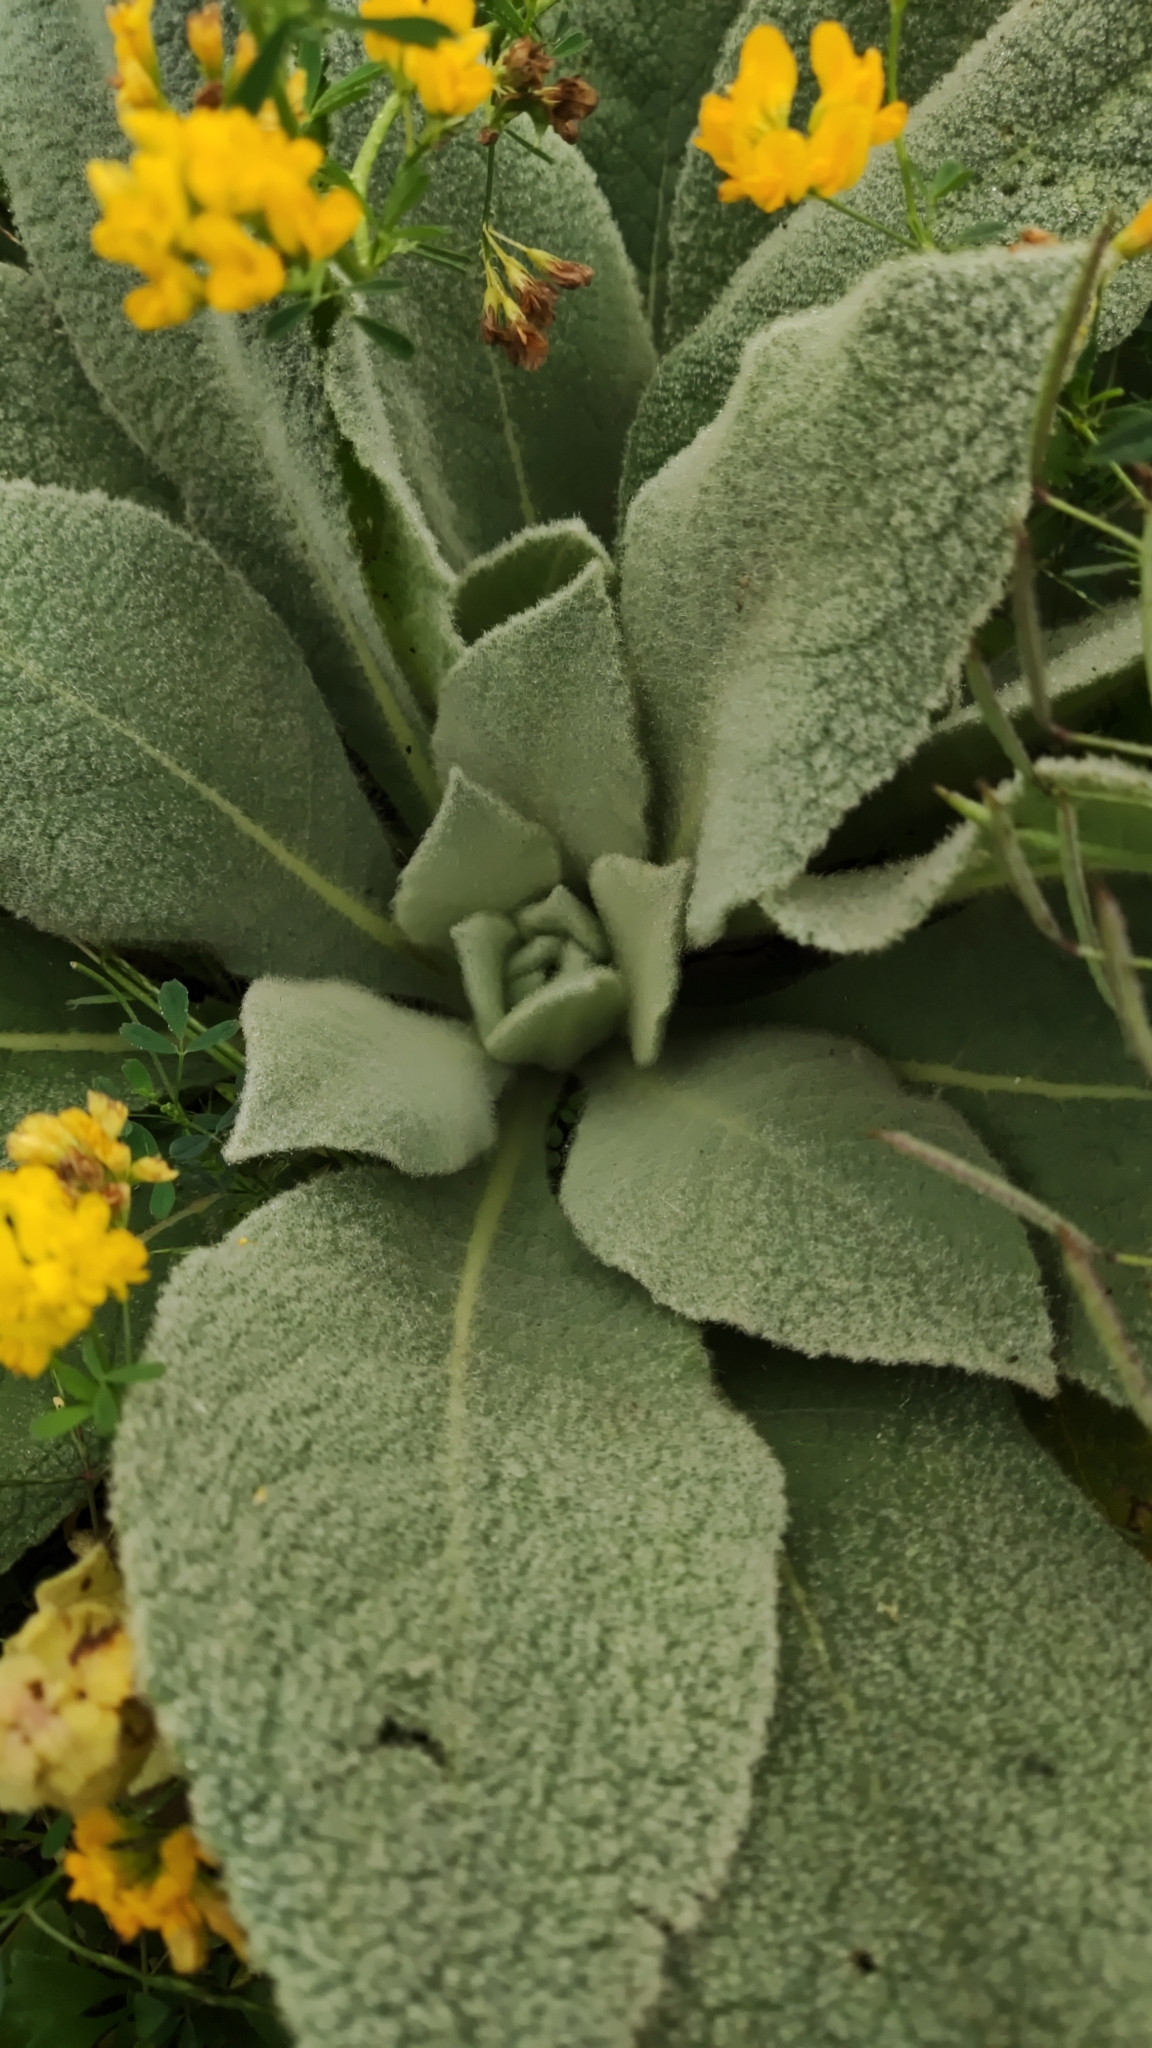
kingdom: Plantae
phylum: Tracheophyta
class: Magnoliopsida
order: Lamiales
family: Scrophulariaceae
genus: Verbascum
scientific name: Verbascum thapsus
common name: Common mullein
